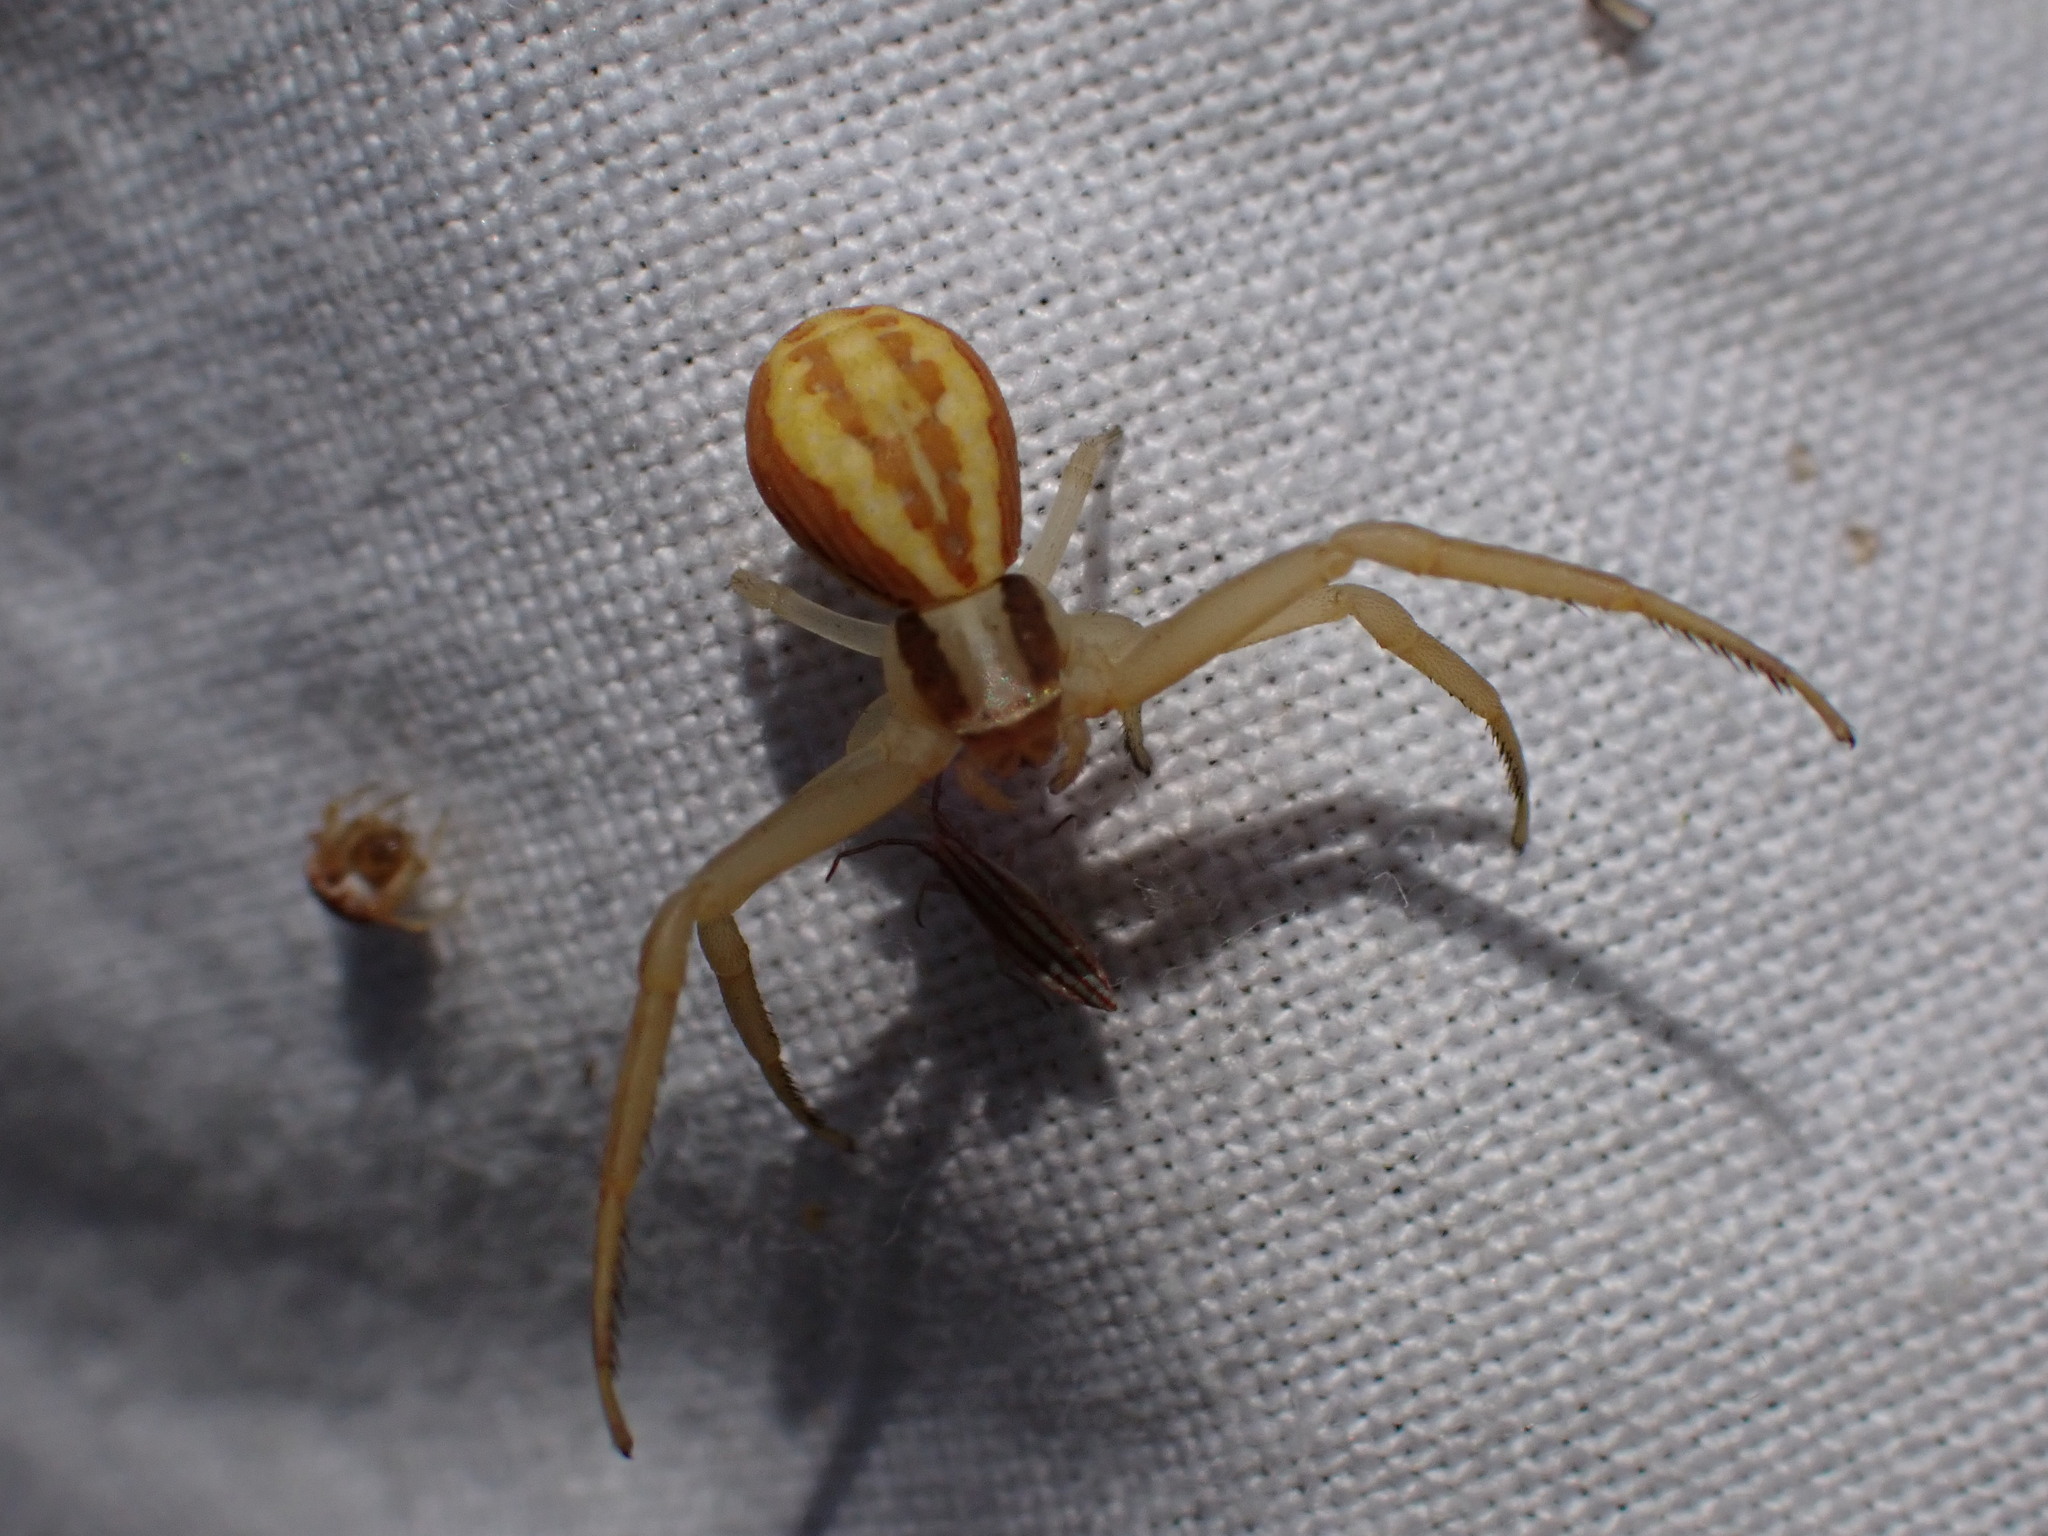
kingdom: Animalia
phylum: Arthropoda
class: Arachnida
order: Araneae
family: Thomisidae
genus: Runcinia
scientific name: Runcinia grammica
